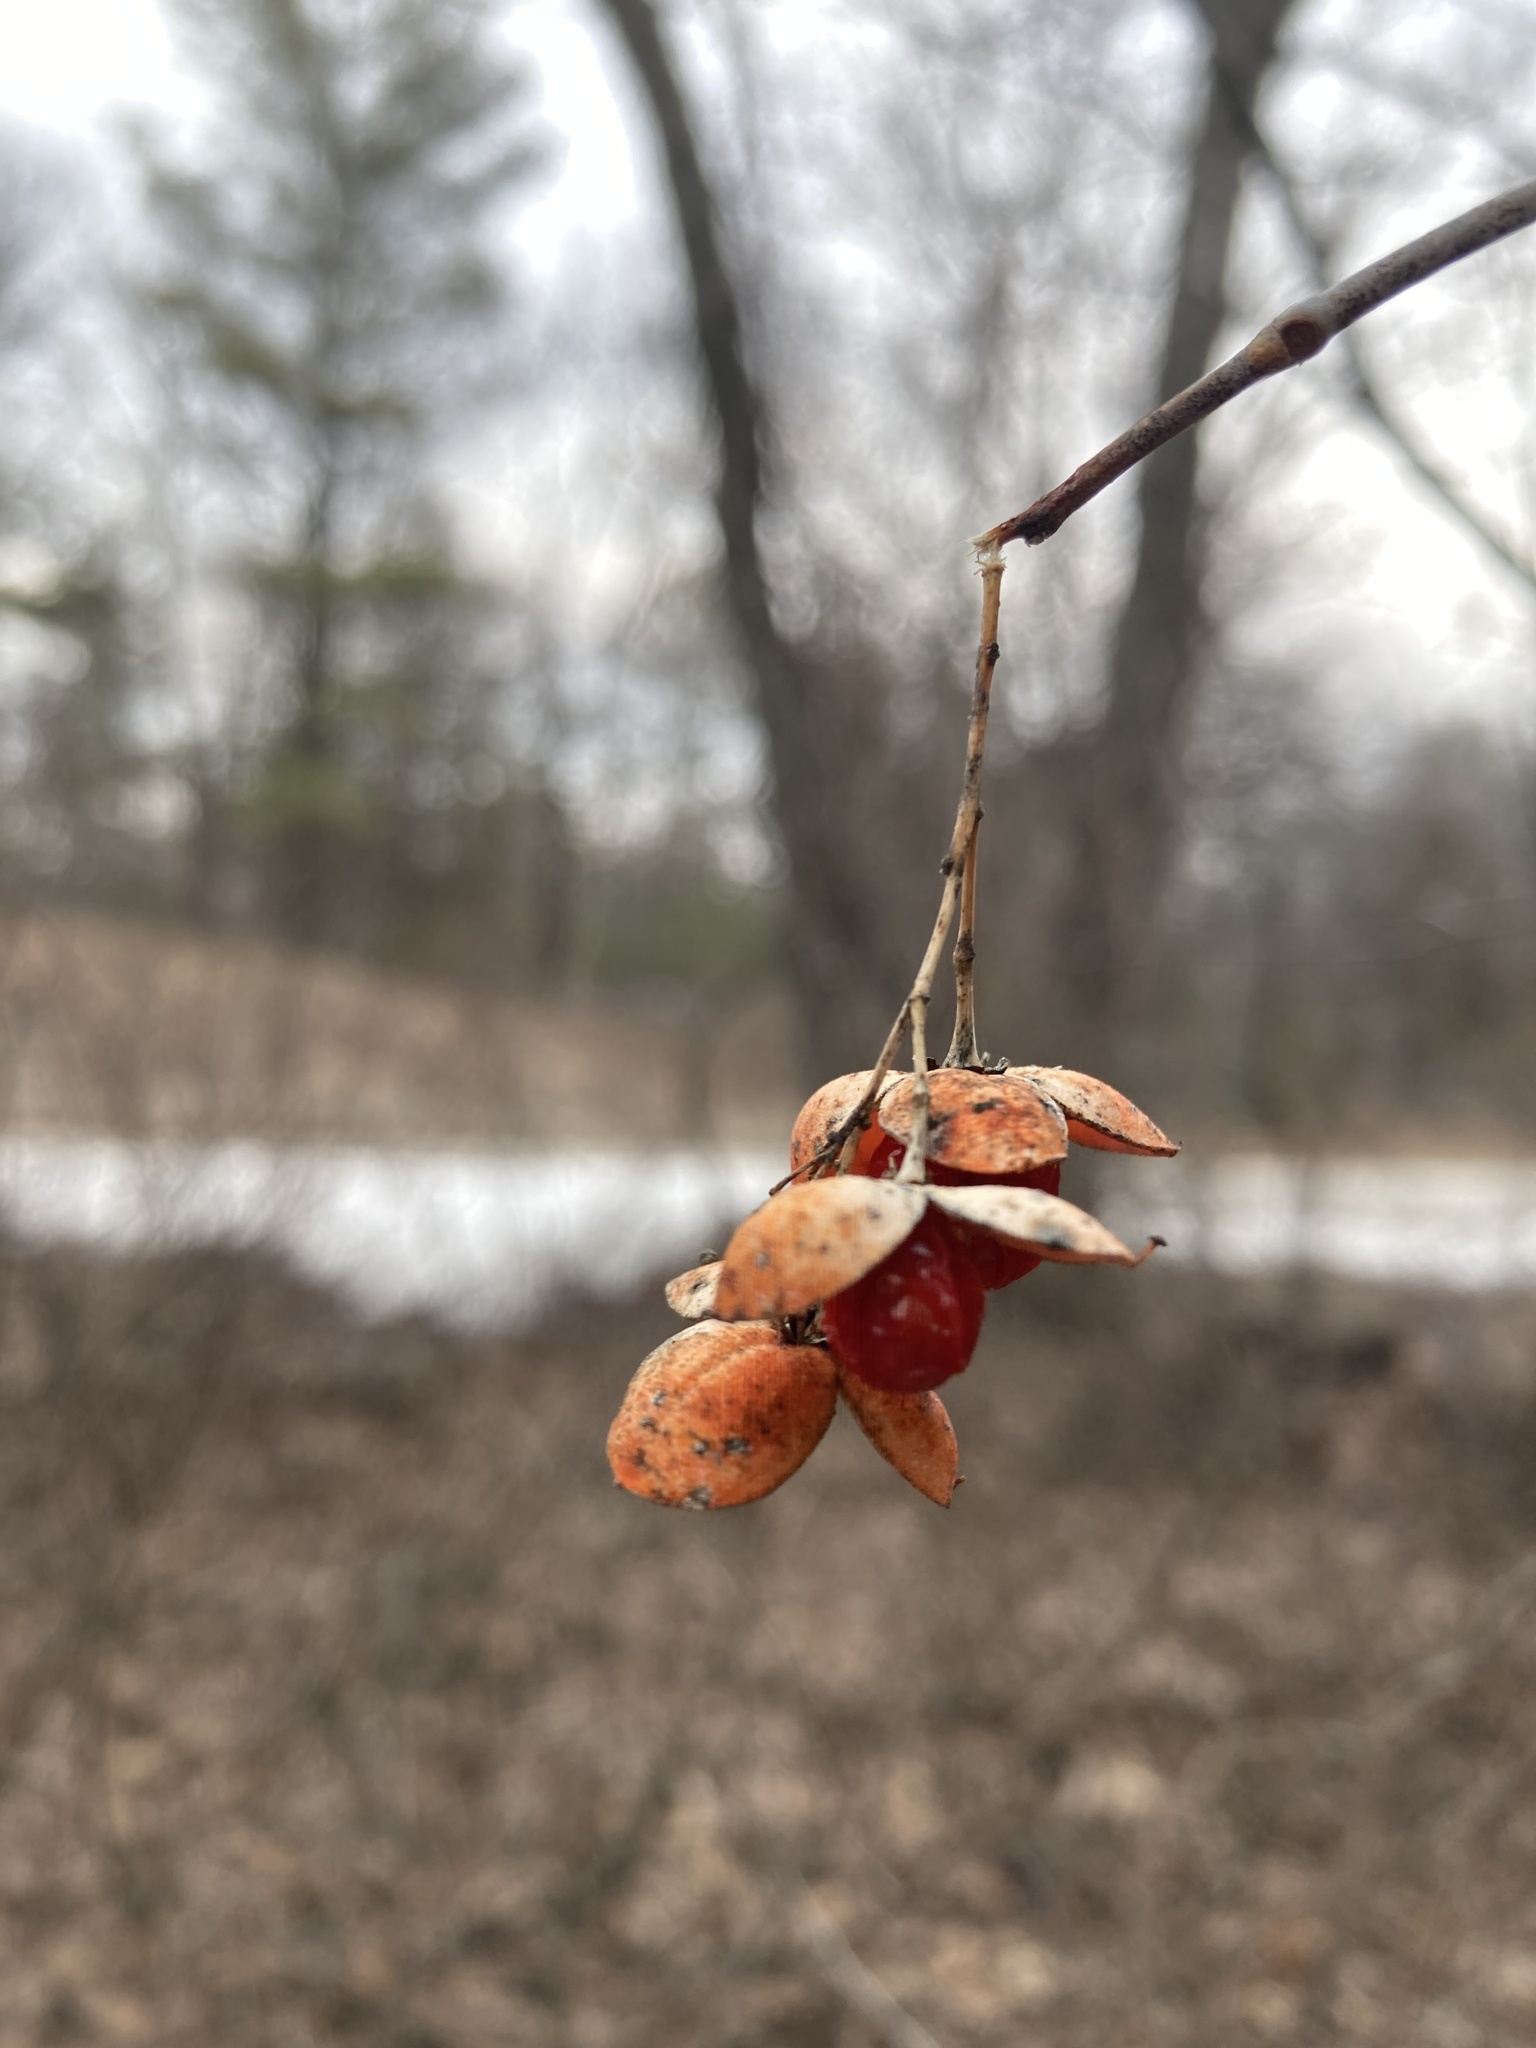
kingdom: Plantae
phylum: Tracheophyta
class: Magnoliopsida
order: Celastrales
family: Celastraceae
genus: Celastrus
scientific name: Celastrus scandens
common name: American bittersweet
